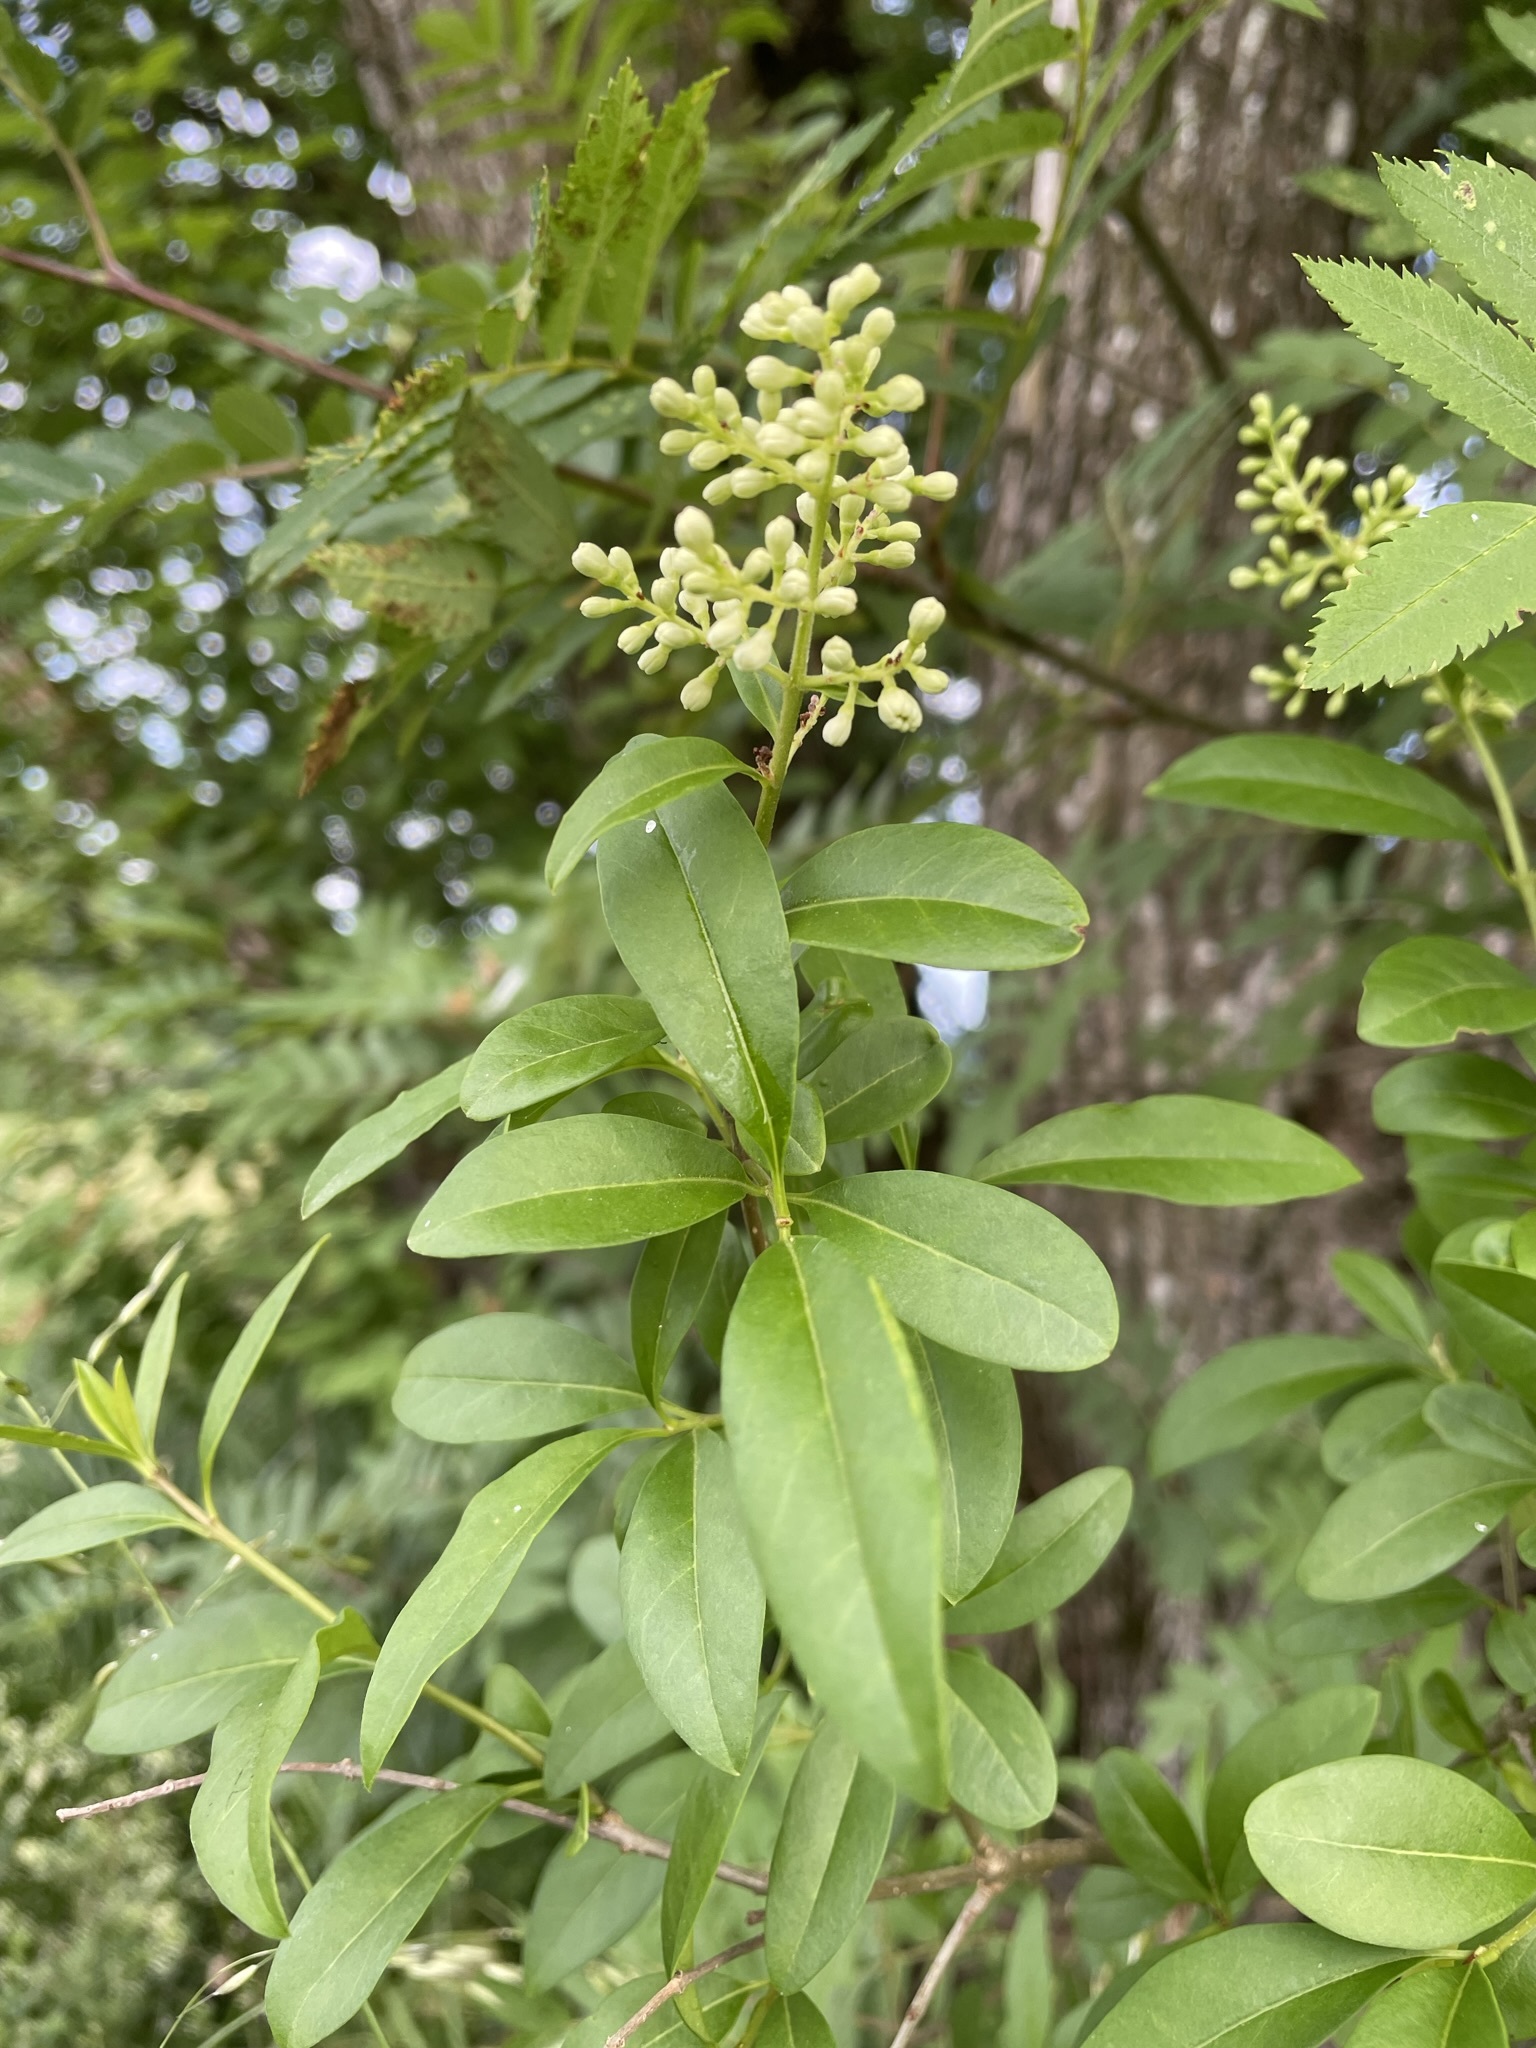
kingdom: Plantae
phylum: Tracheophyta
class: Magnoliopsida
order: Lamiales
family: Oleaceae
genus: Ligustrum
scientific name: Ligustrum vulgare
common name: Wild privet
